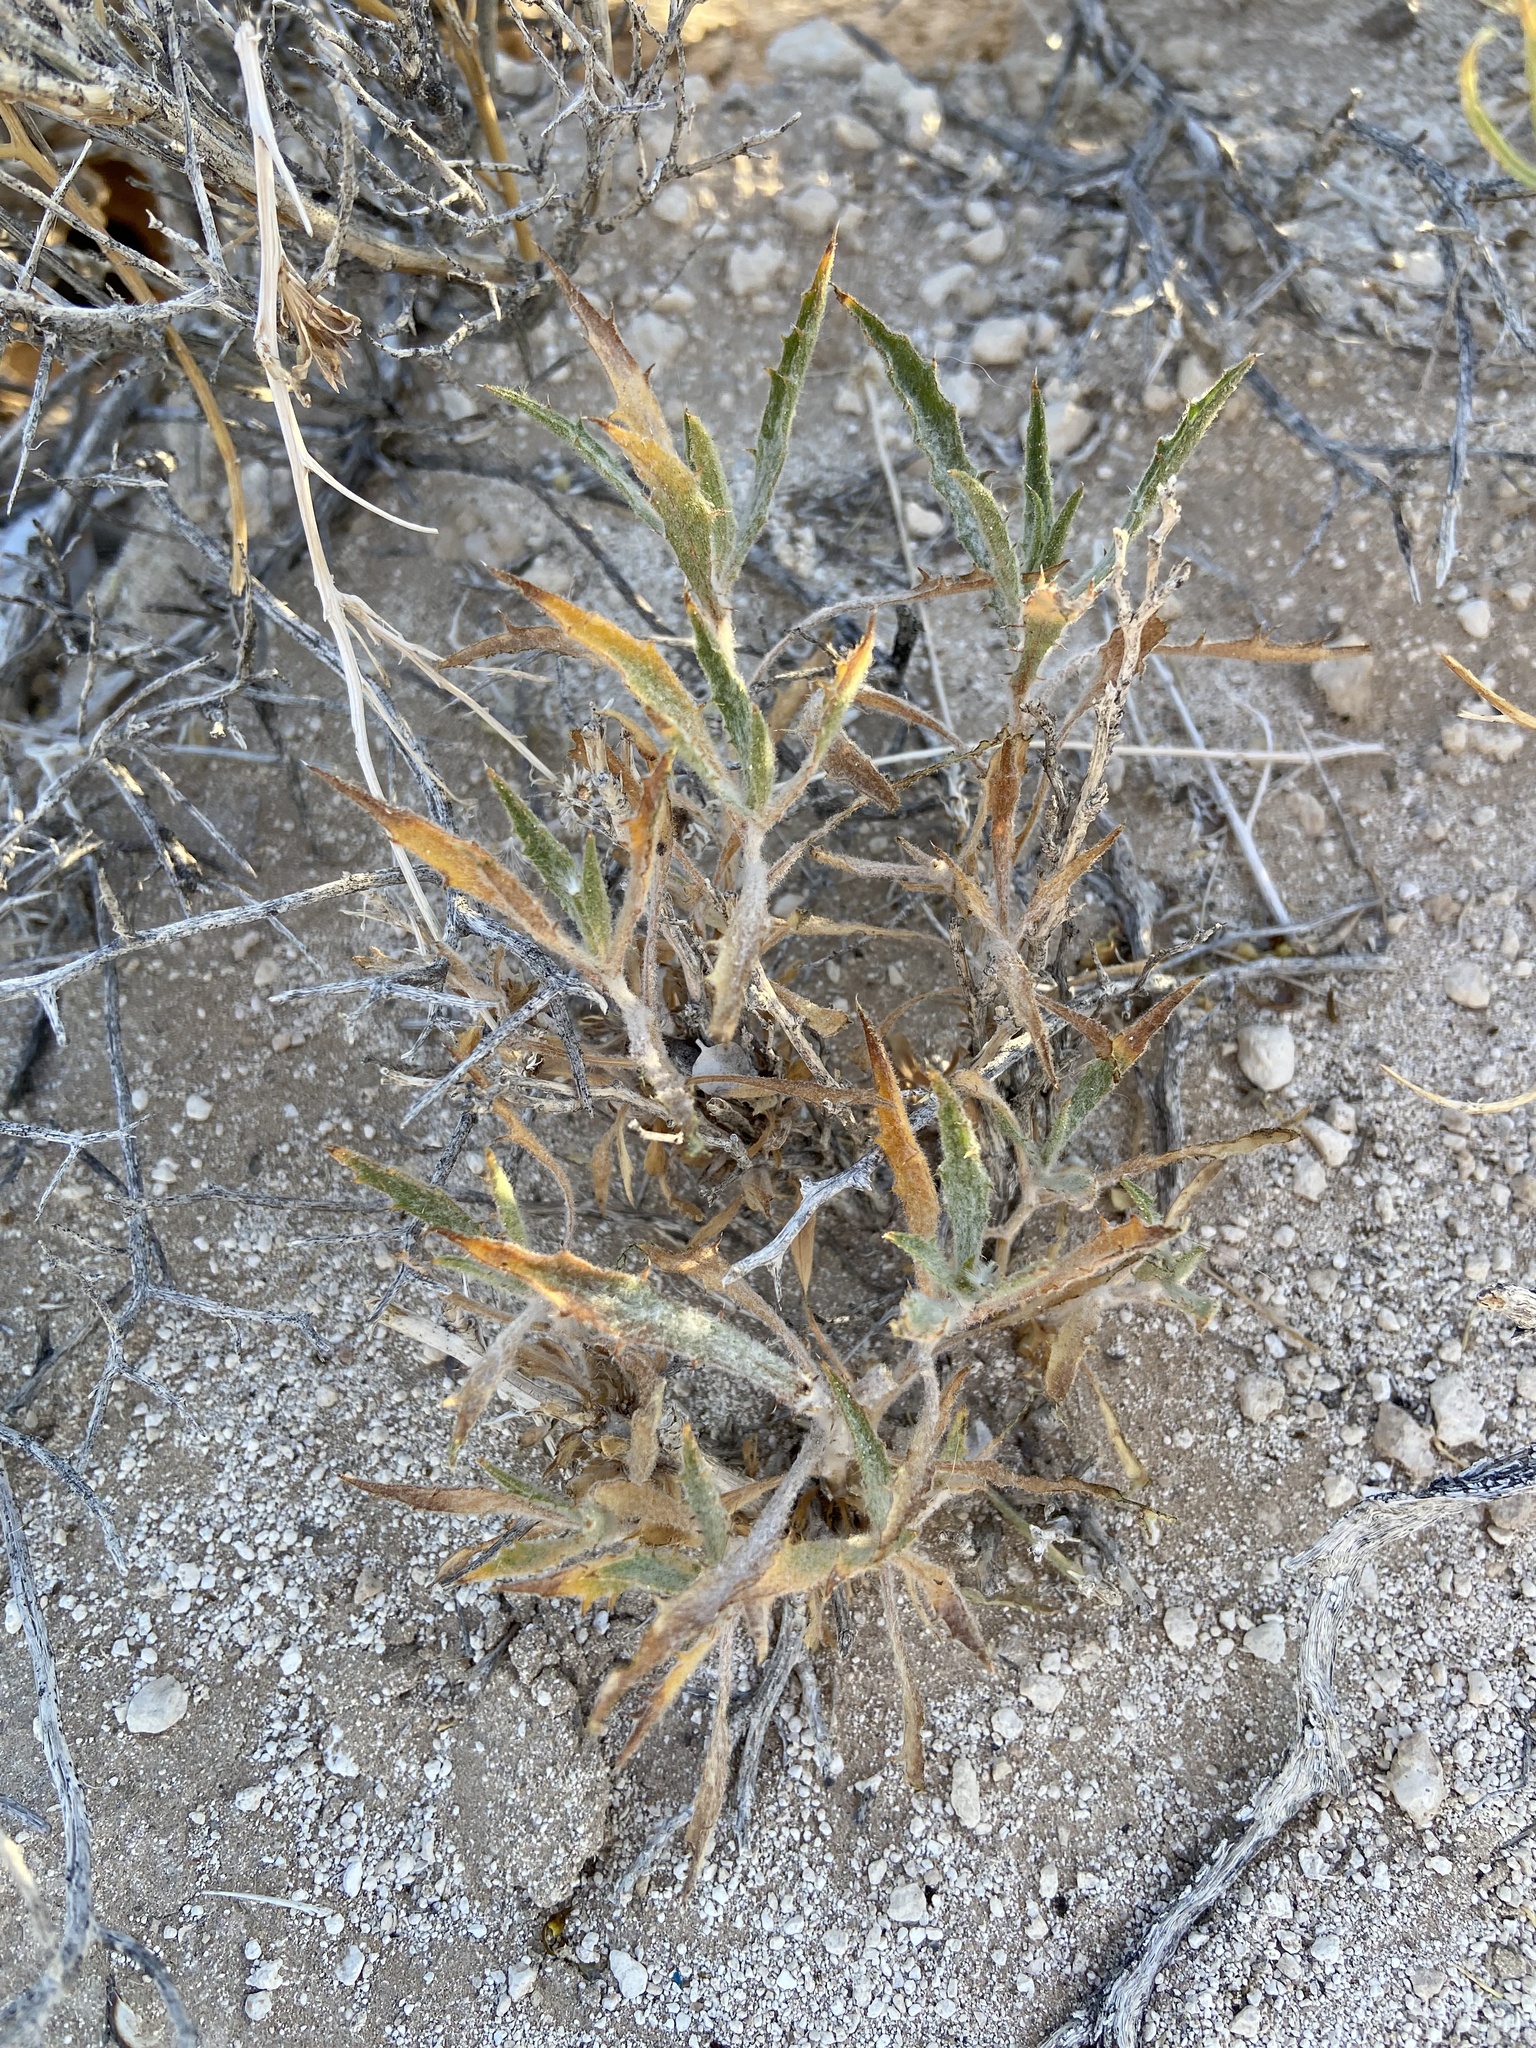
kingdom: Plantae
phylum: Tracheophyta
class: Magnoliopsida
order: Asterales
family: Asteraceae
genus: Xylorhiza
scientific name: Xylorhiza tortifolia
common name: Hurt-leaf woody-aster
